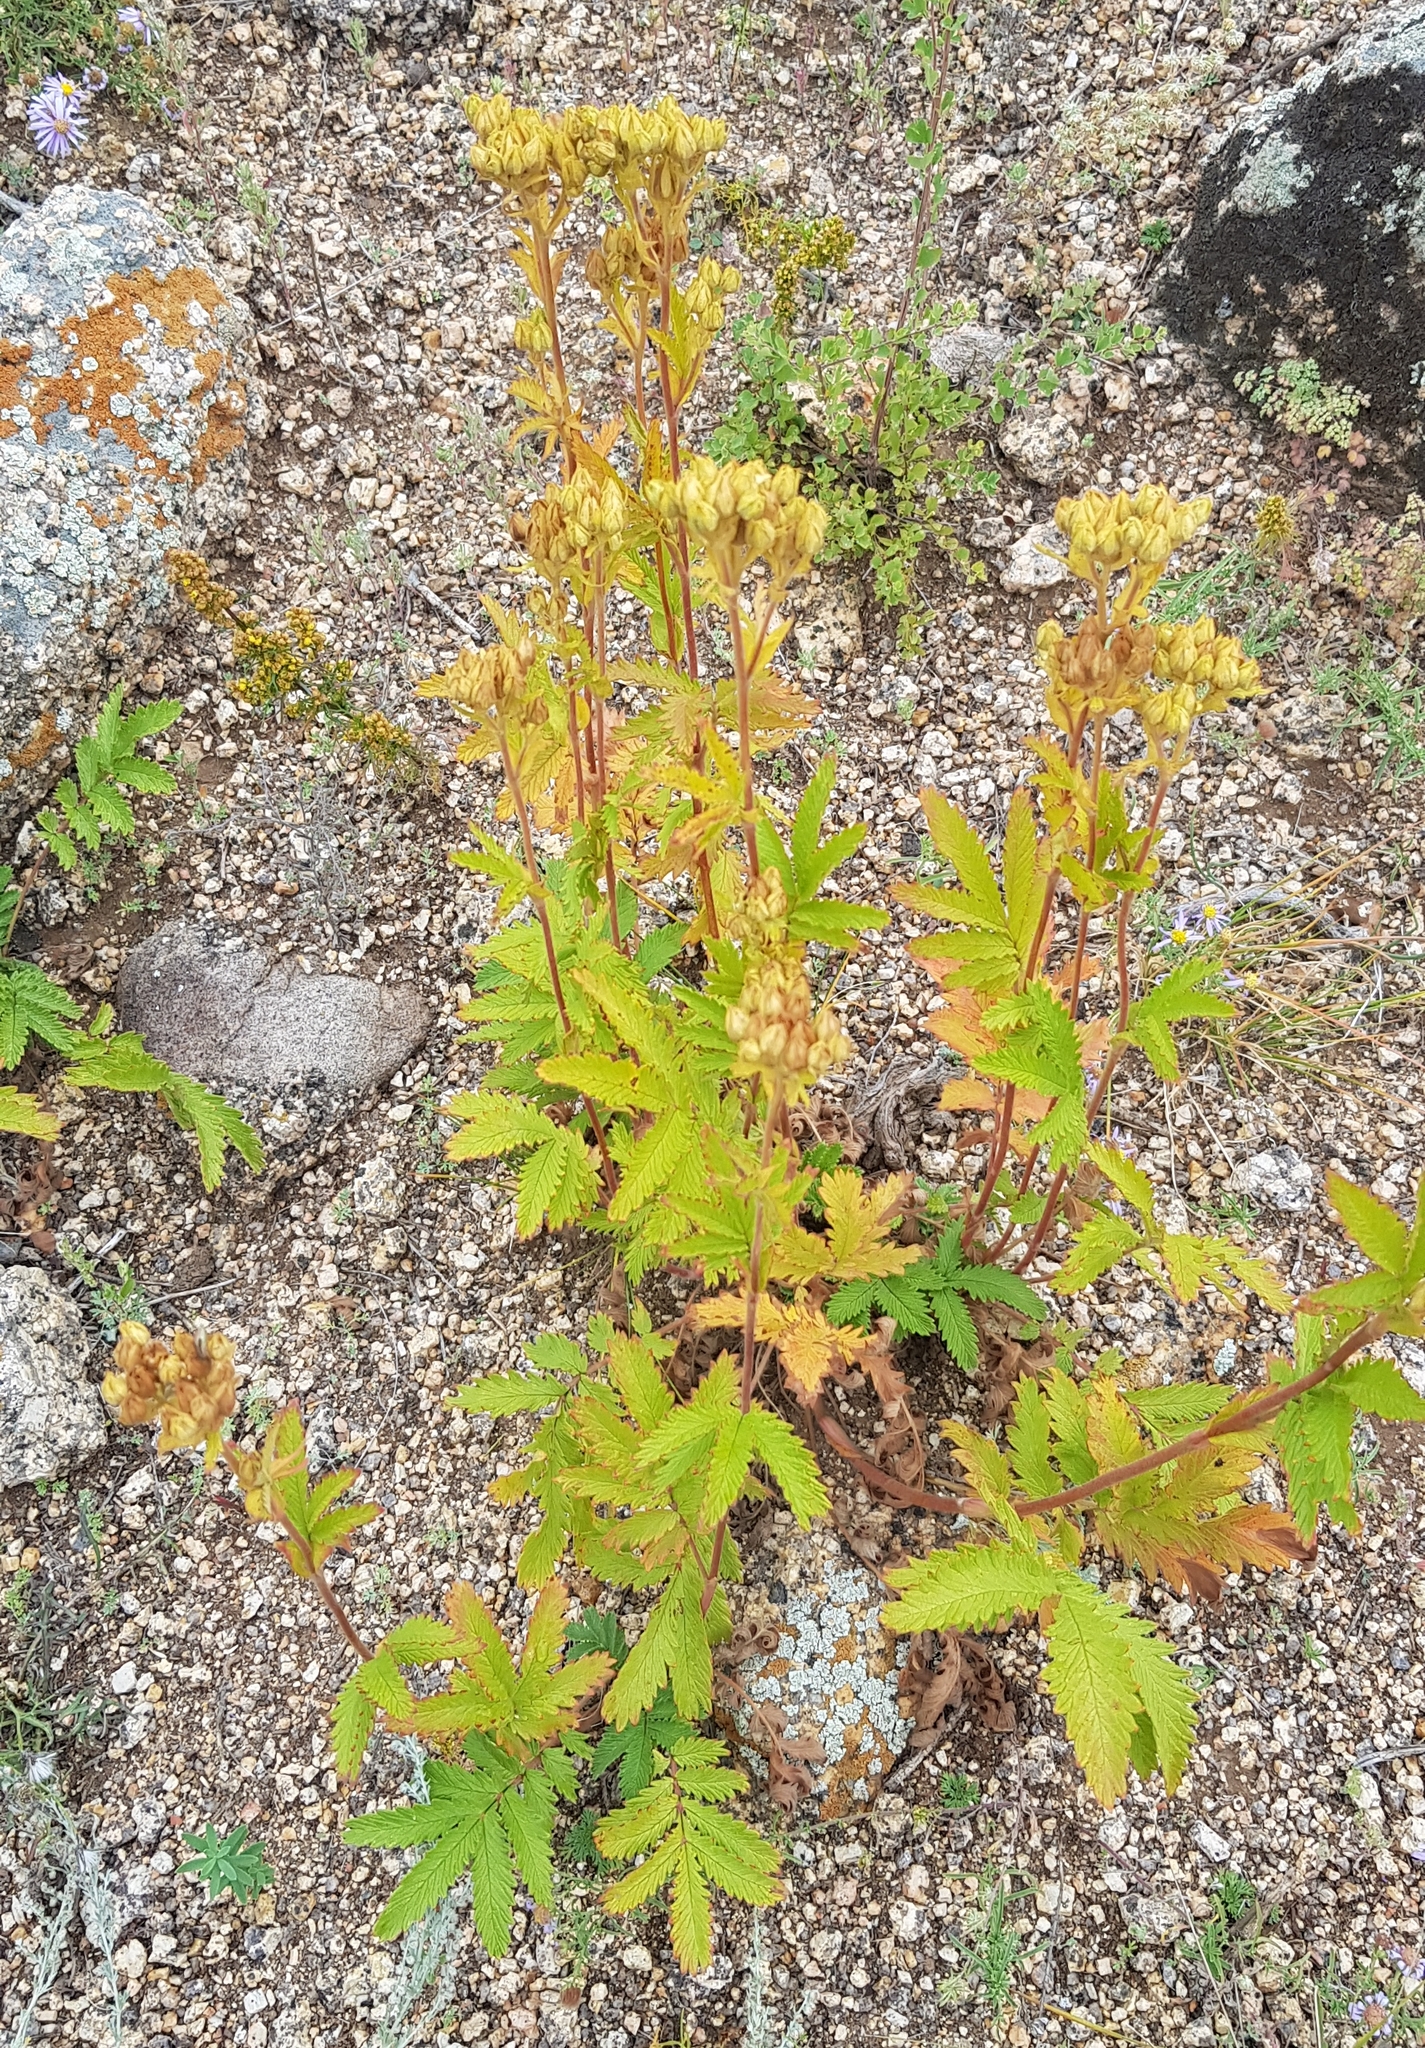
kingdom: Plantae
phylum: Tracheophyta
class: Magnoliopsida
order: Rosales
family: Rosaceae
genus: Potentilla
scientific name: Potentilla tanacetifolia
